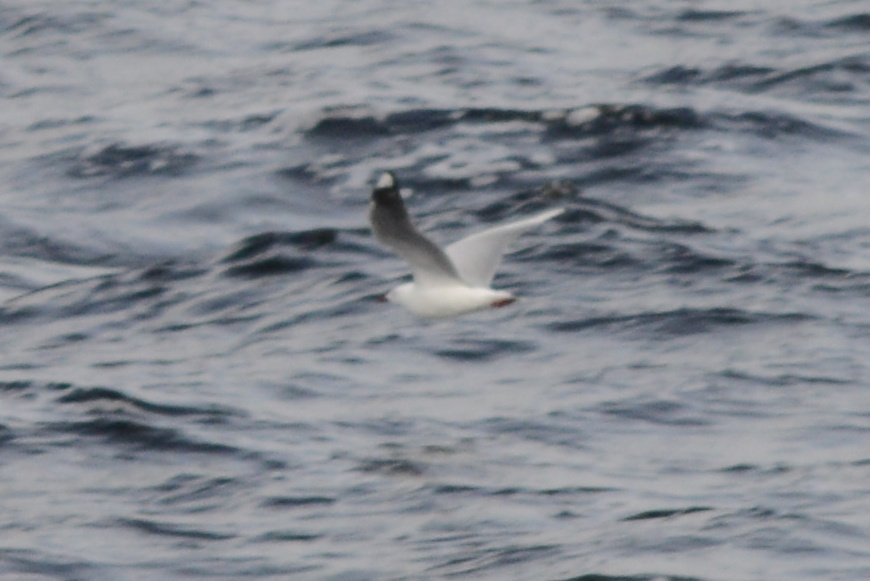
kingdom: Animalia
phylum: Chordata
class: Aves
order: Charadriiformes
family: Laridae
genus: Chroicocephalus
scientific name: Chroicocephalus novaehollandiae
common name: Silver gull
